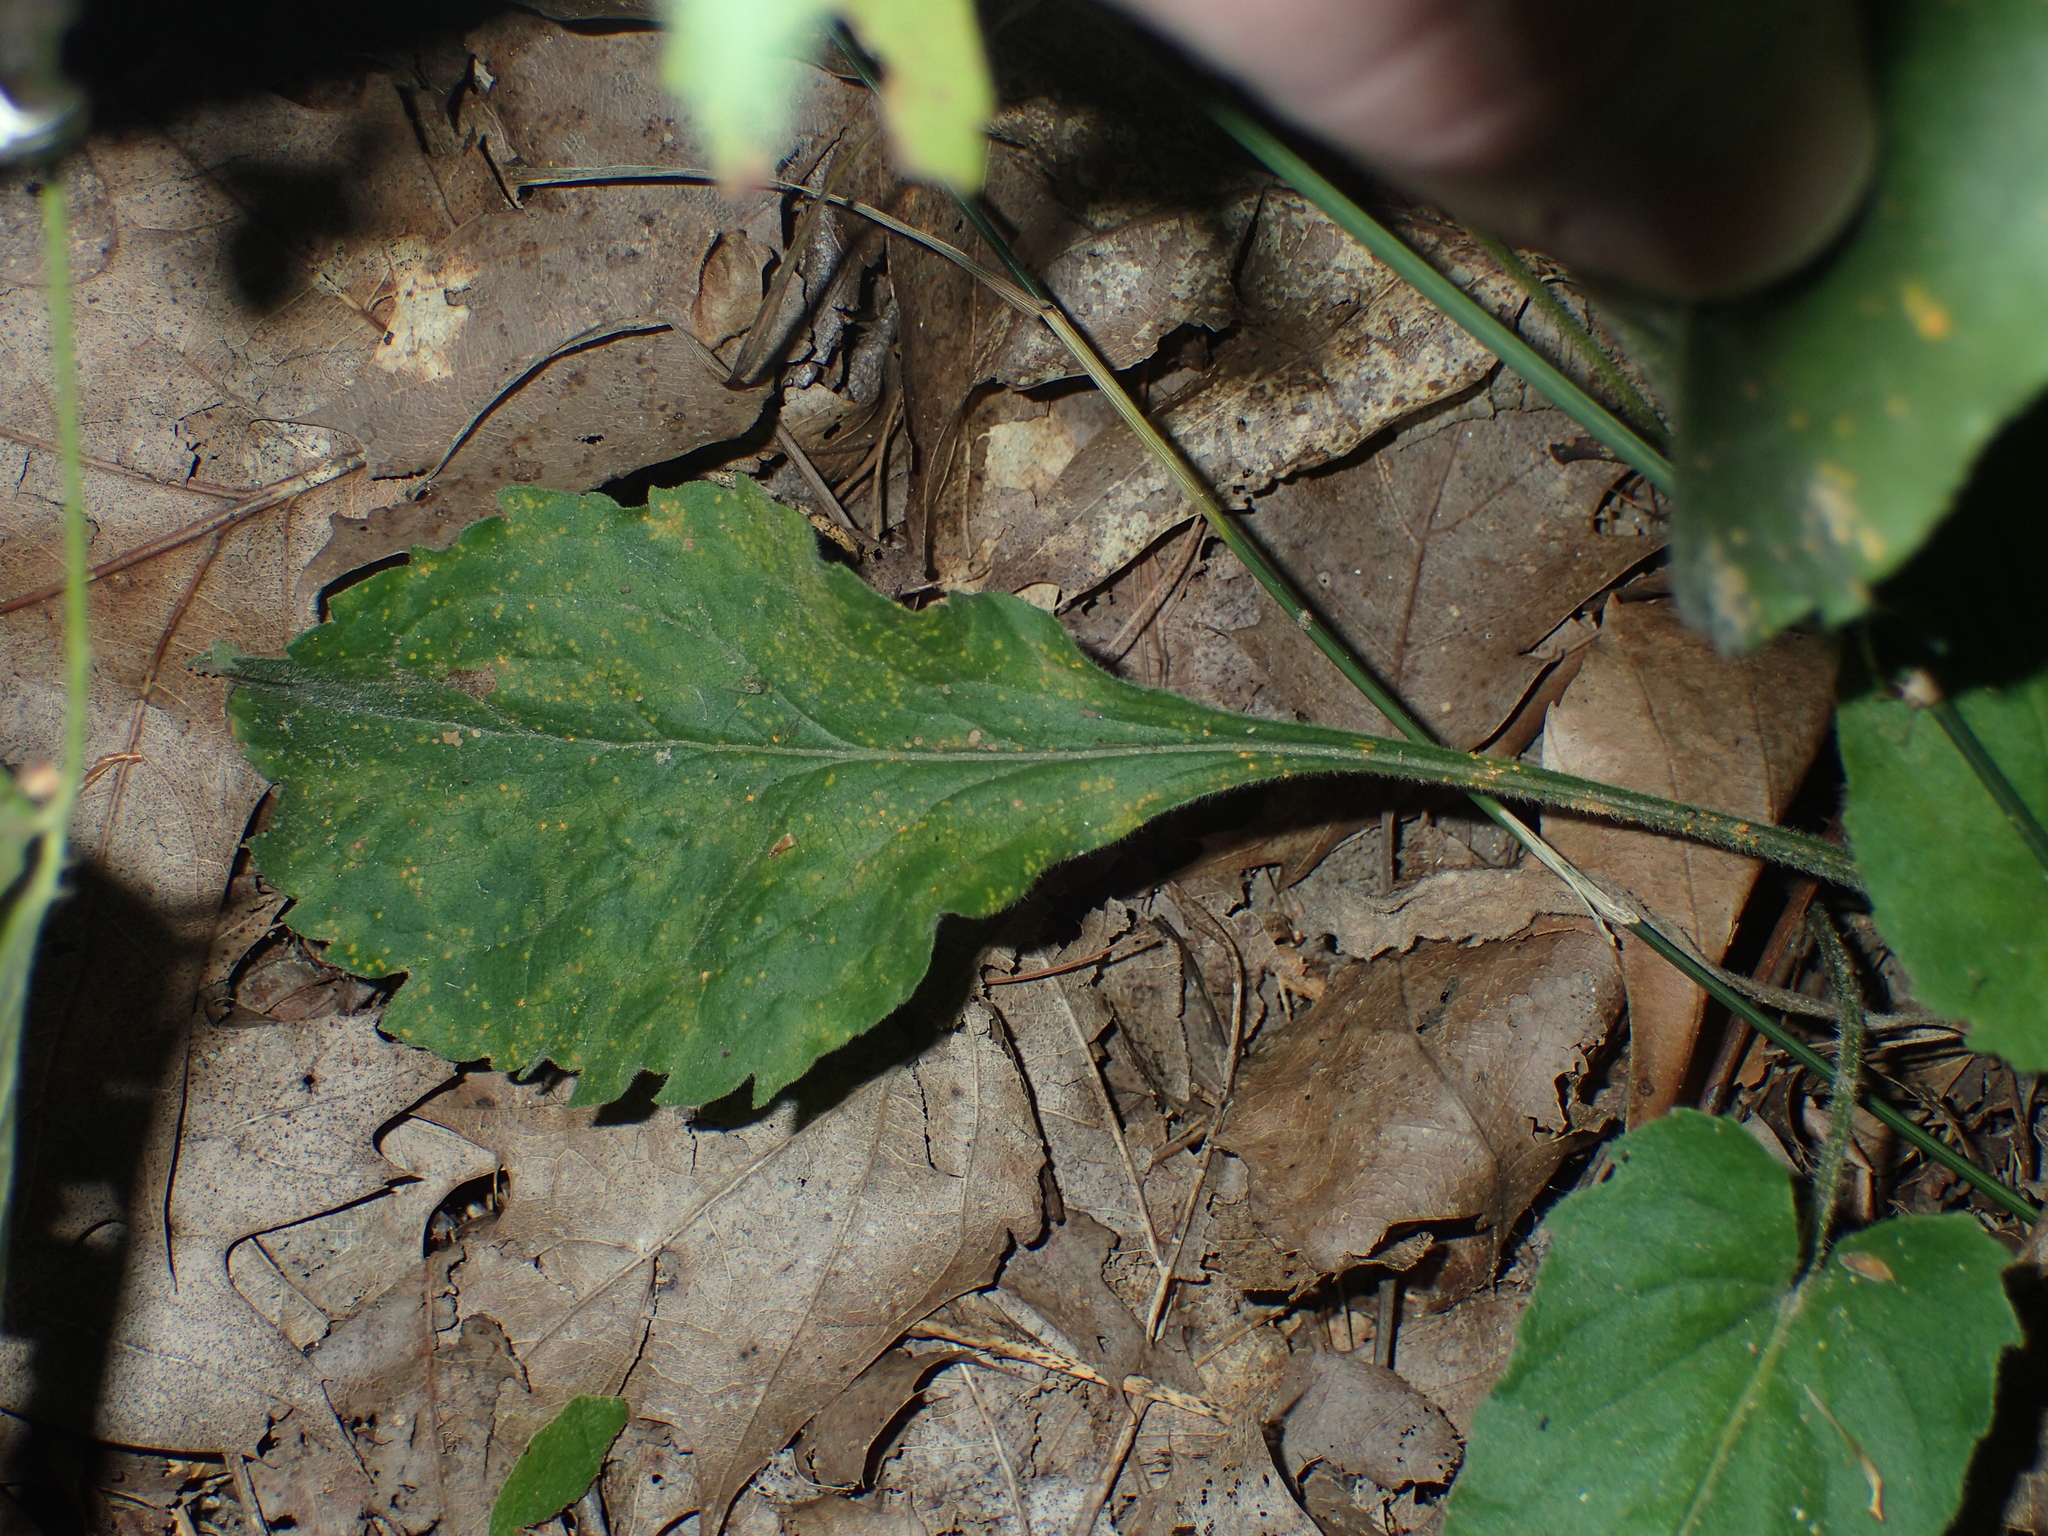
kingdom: Plantae
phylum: Tracheophyta
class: Magnoliopsida
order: Asterales
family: Asteraceae
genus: Solidago
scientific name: Solidago bicolor
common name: Silverrod
